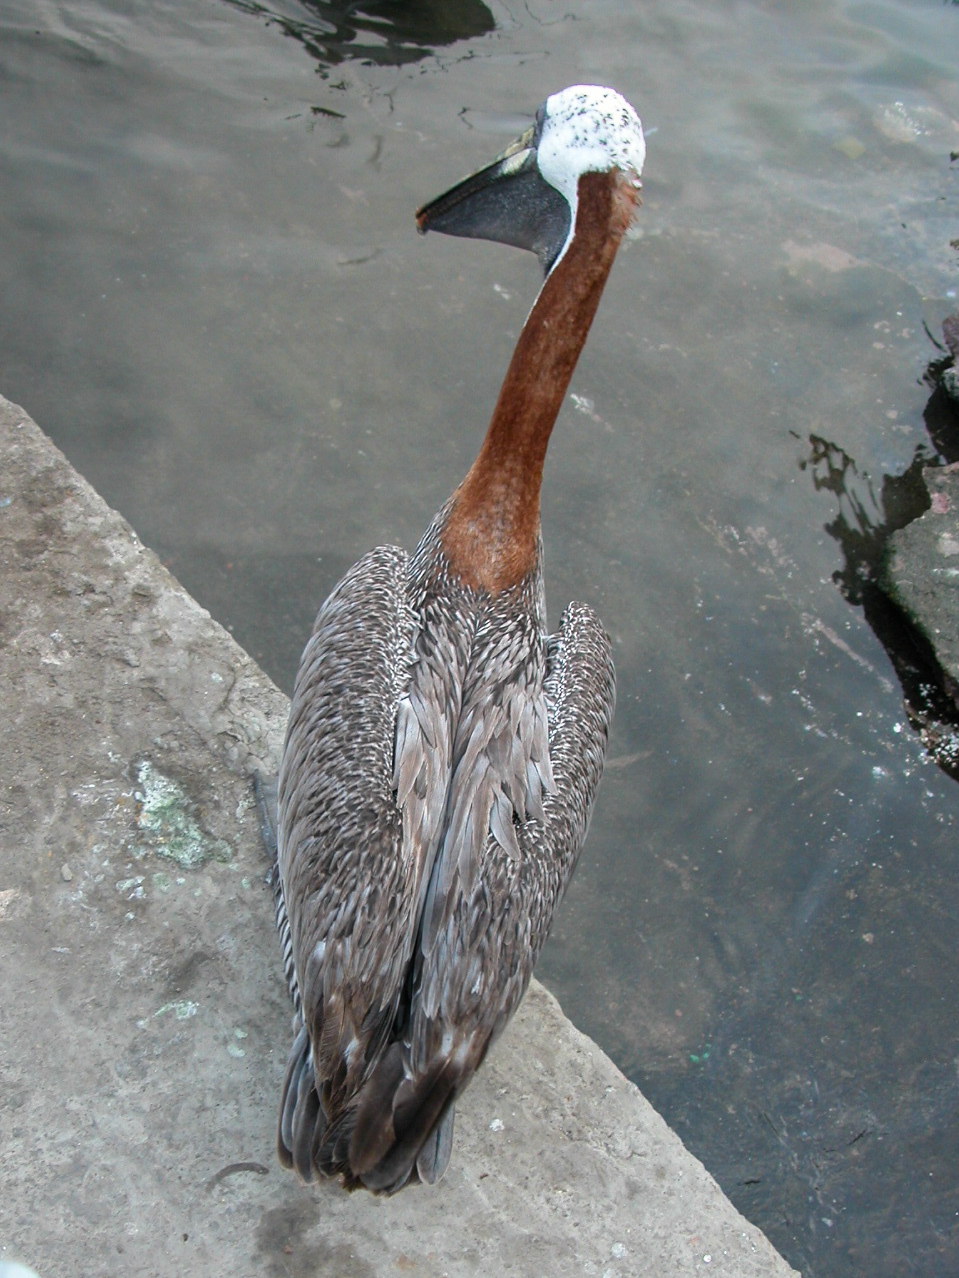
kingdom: Animalia
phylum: Chordata
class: Aves
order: Pelecaniformes
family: Pelecanidae
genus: Pelecanus
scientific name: Pelecanus occidentalis
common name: Brown pelican
